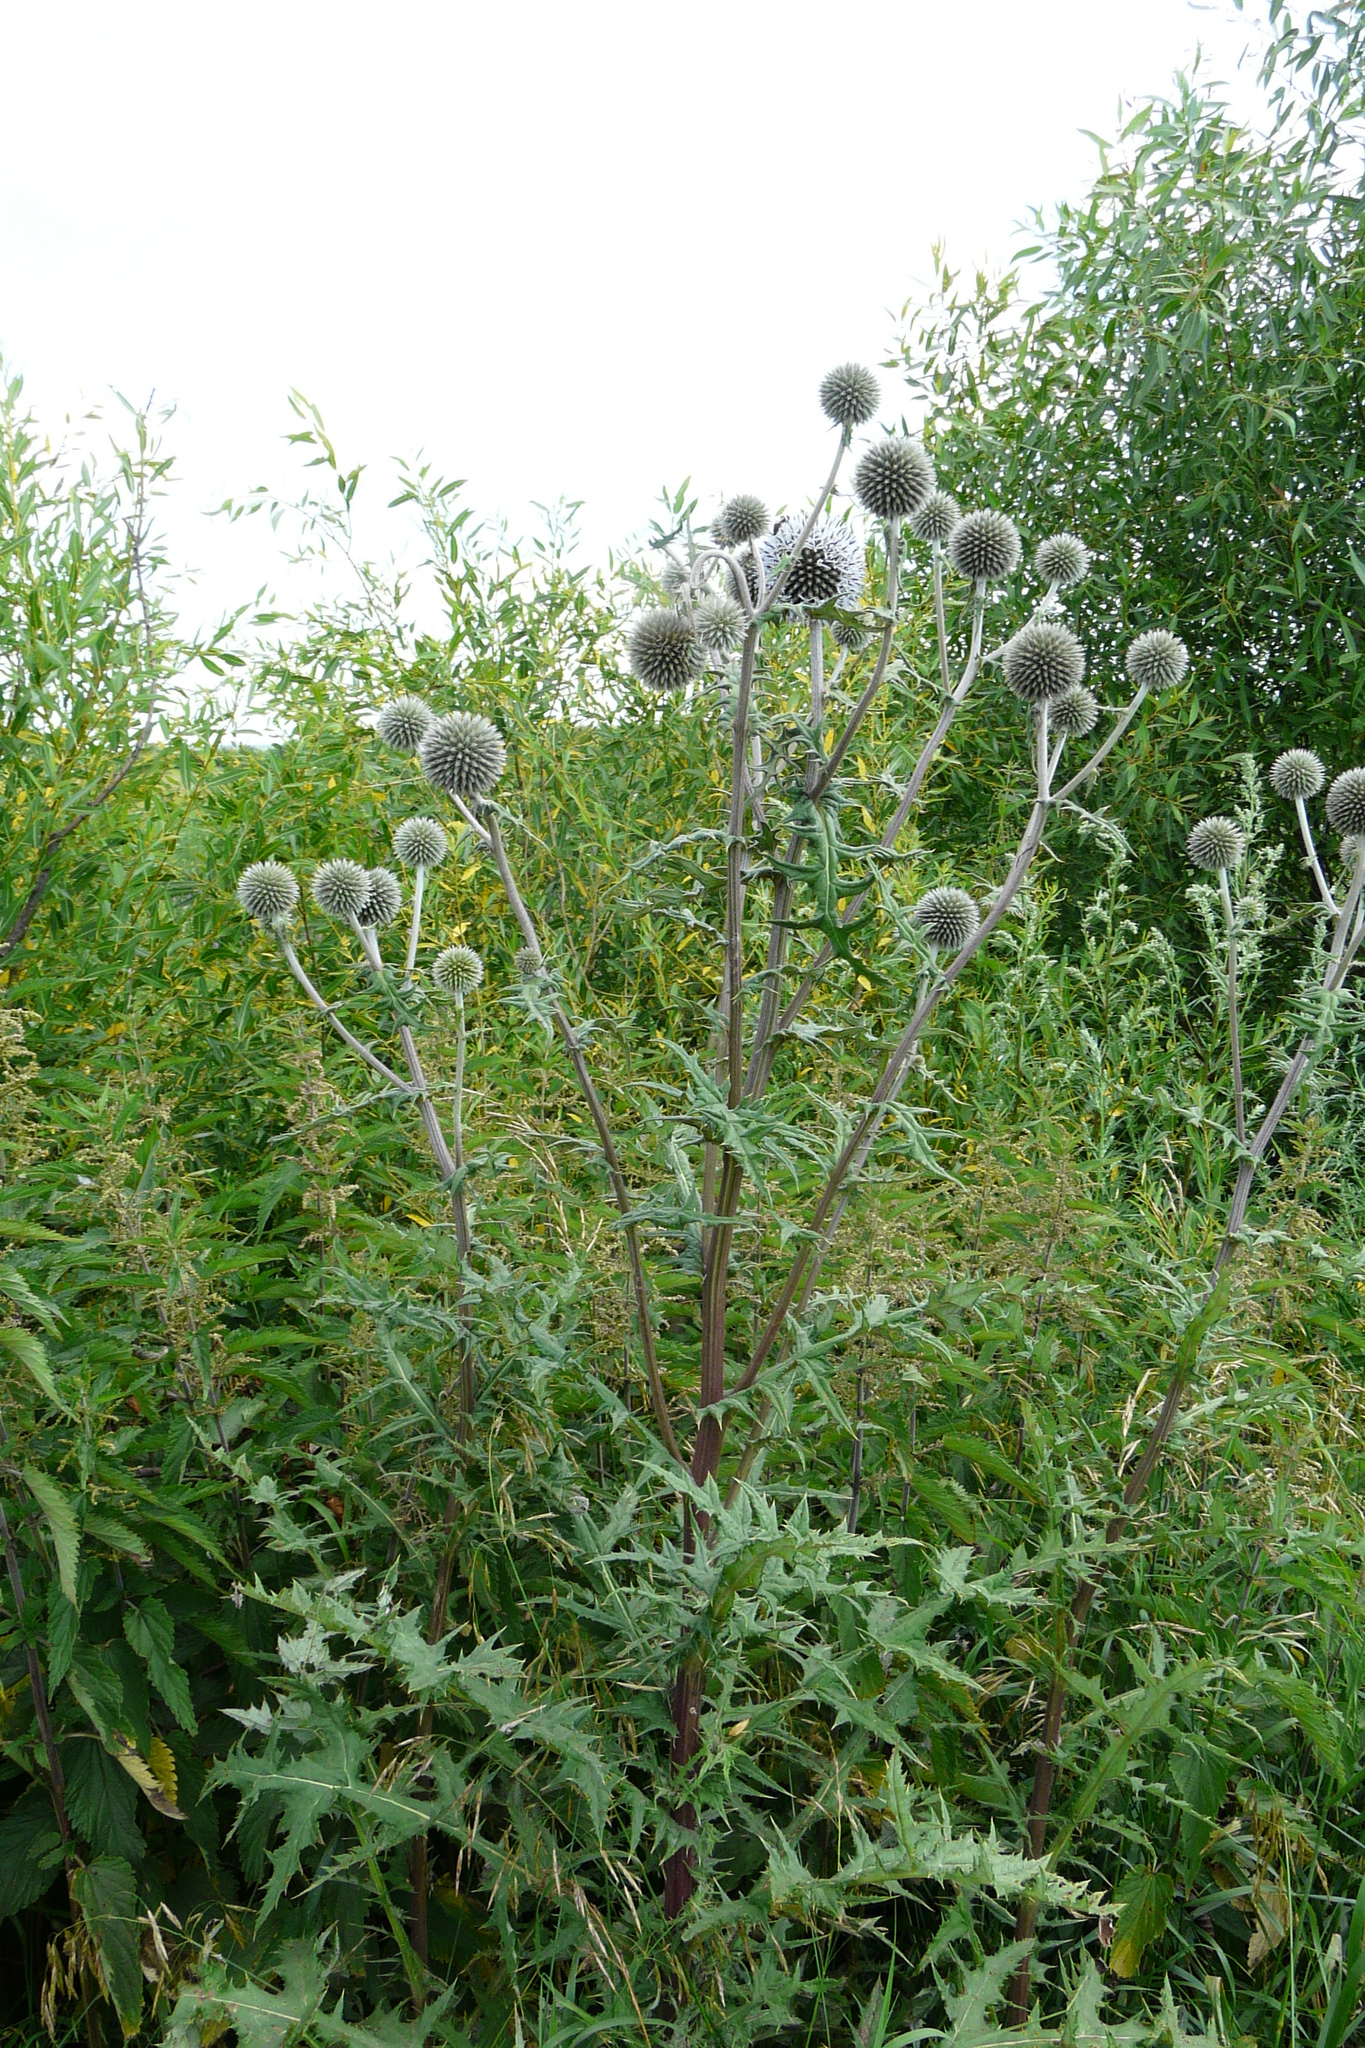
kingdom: Plantae
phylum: Tracheophyta
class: Magnoliopsida
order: Asterales
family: Asteraceae
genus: Echinops
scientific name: Echinops sphaerocephalus
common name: Glandular globe-thistle
